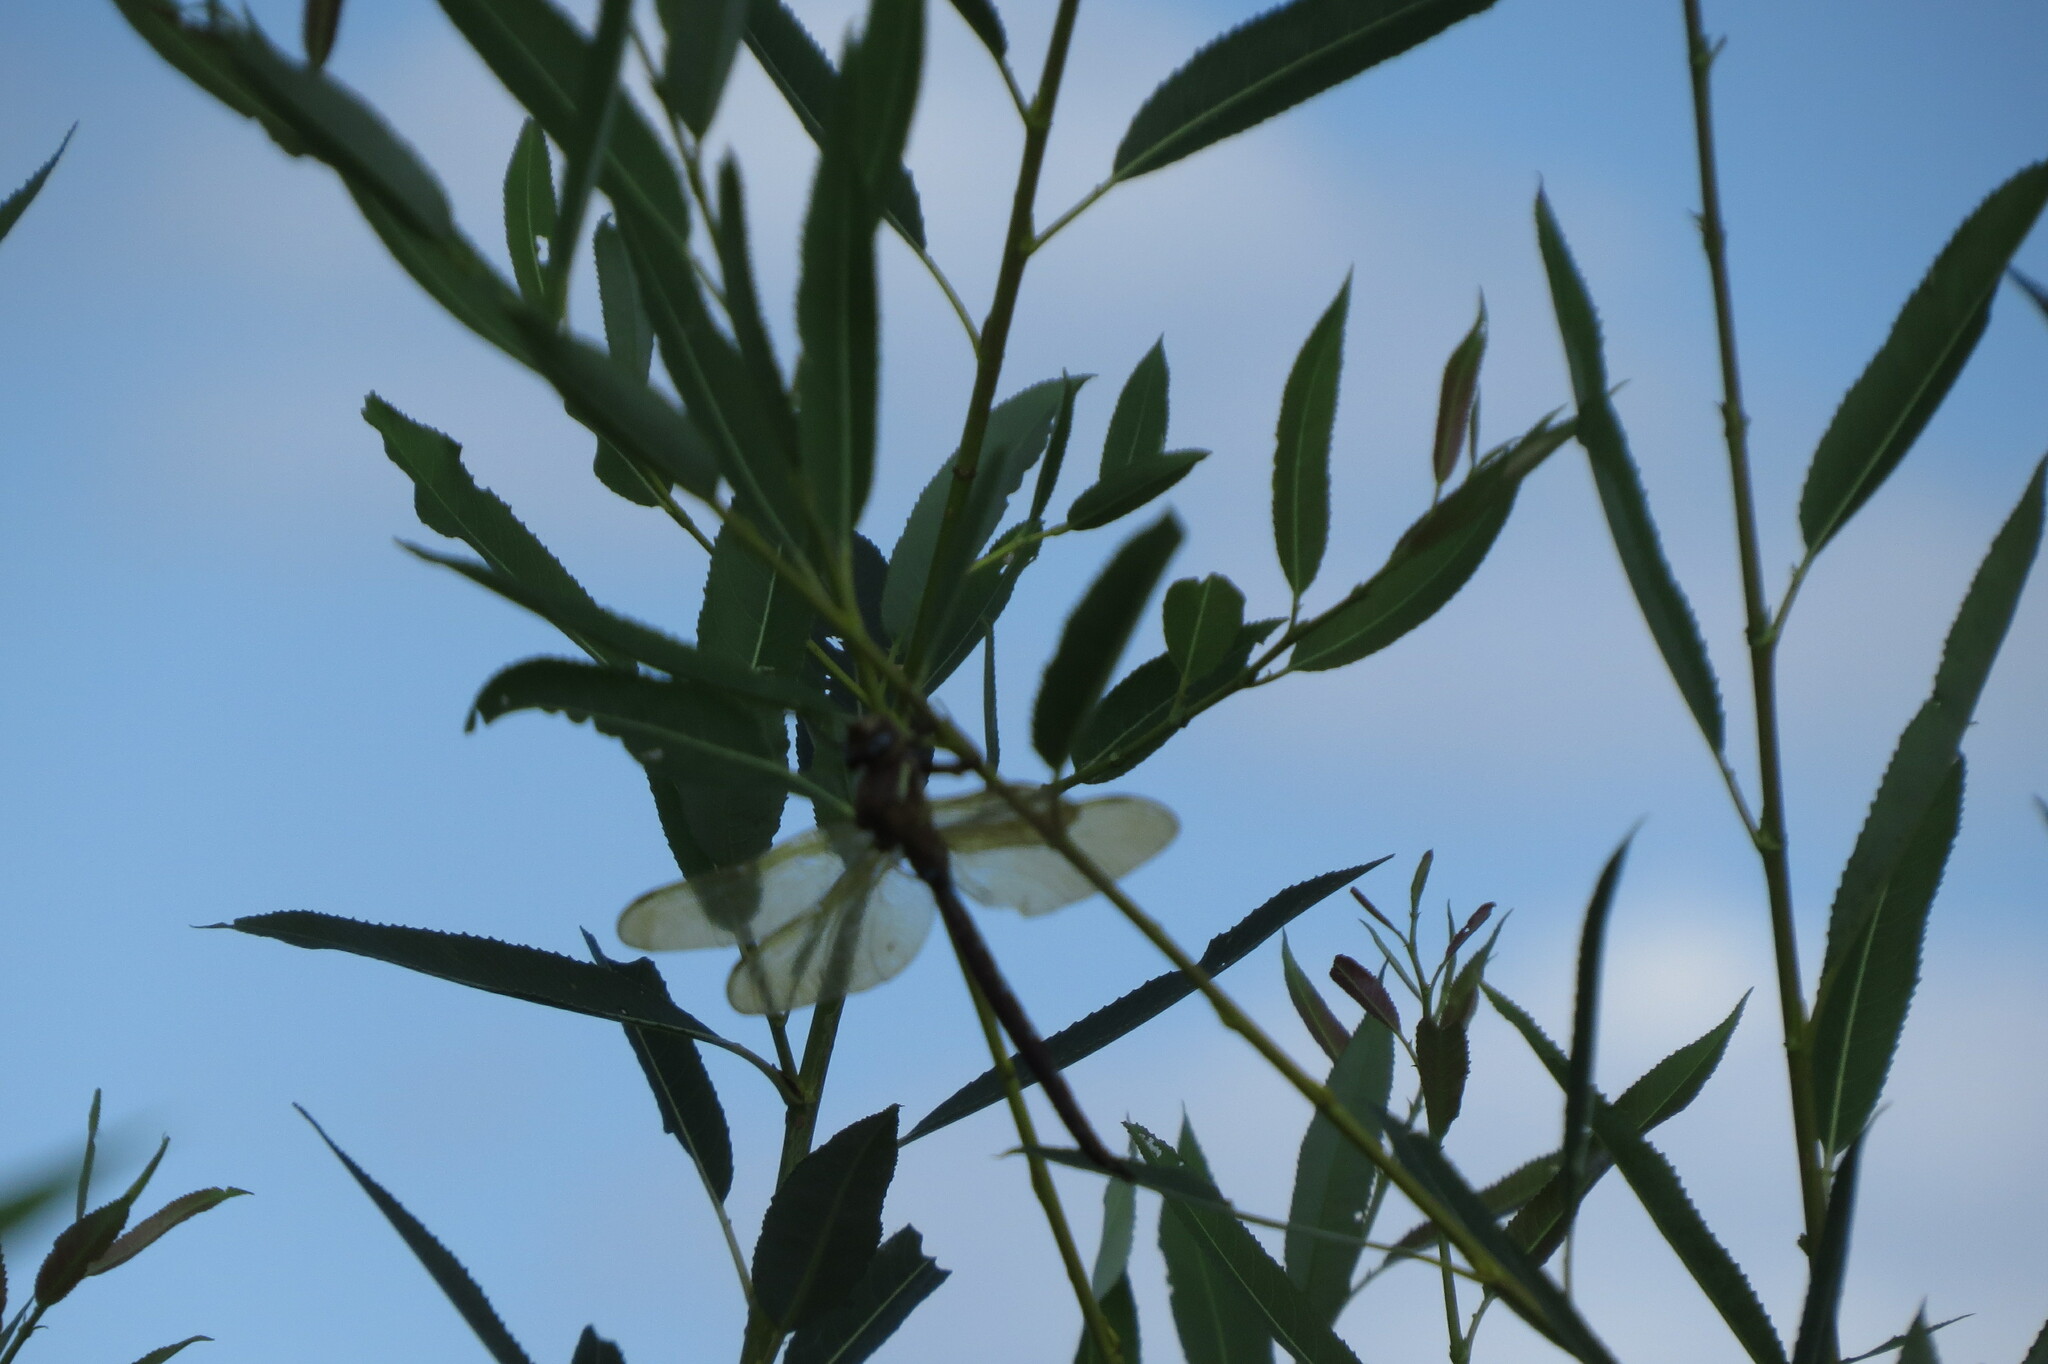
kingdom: Animalia
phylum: Arthropoda
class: Insecta
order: Odonata
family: Aeshnidae
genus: Aeshna
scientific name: Aeshna grandis
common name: Brown hawker
